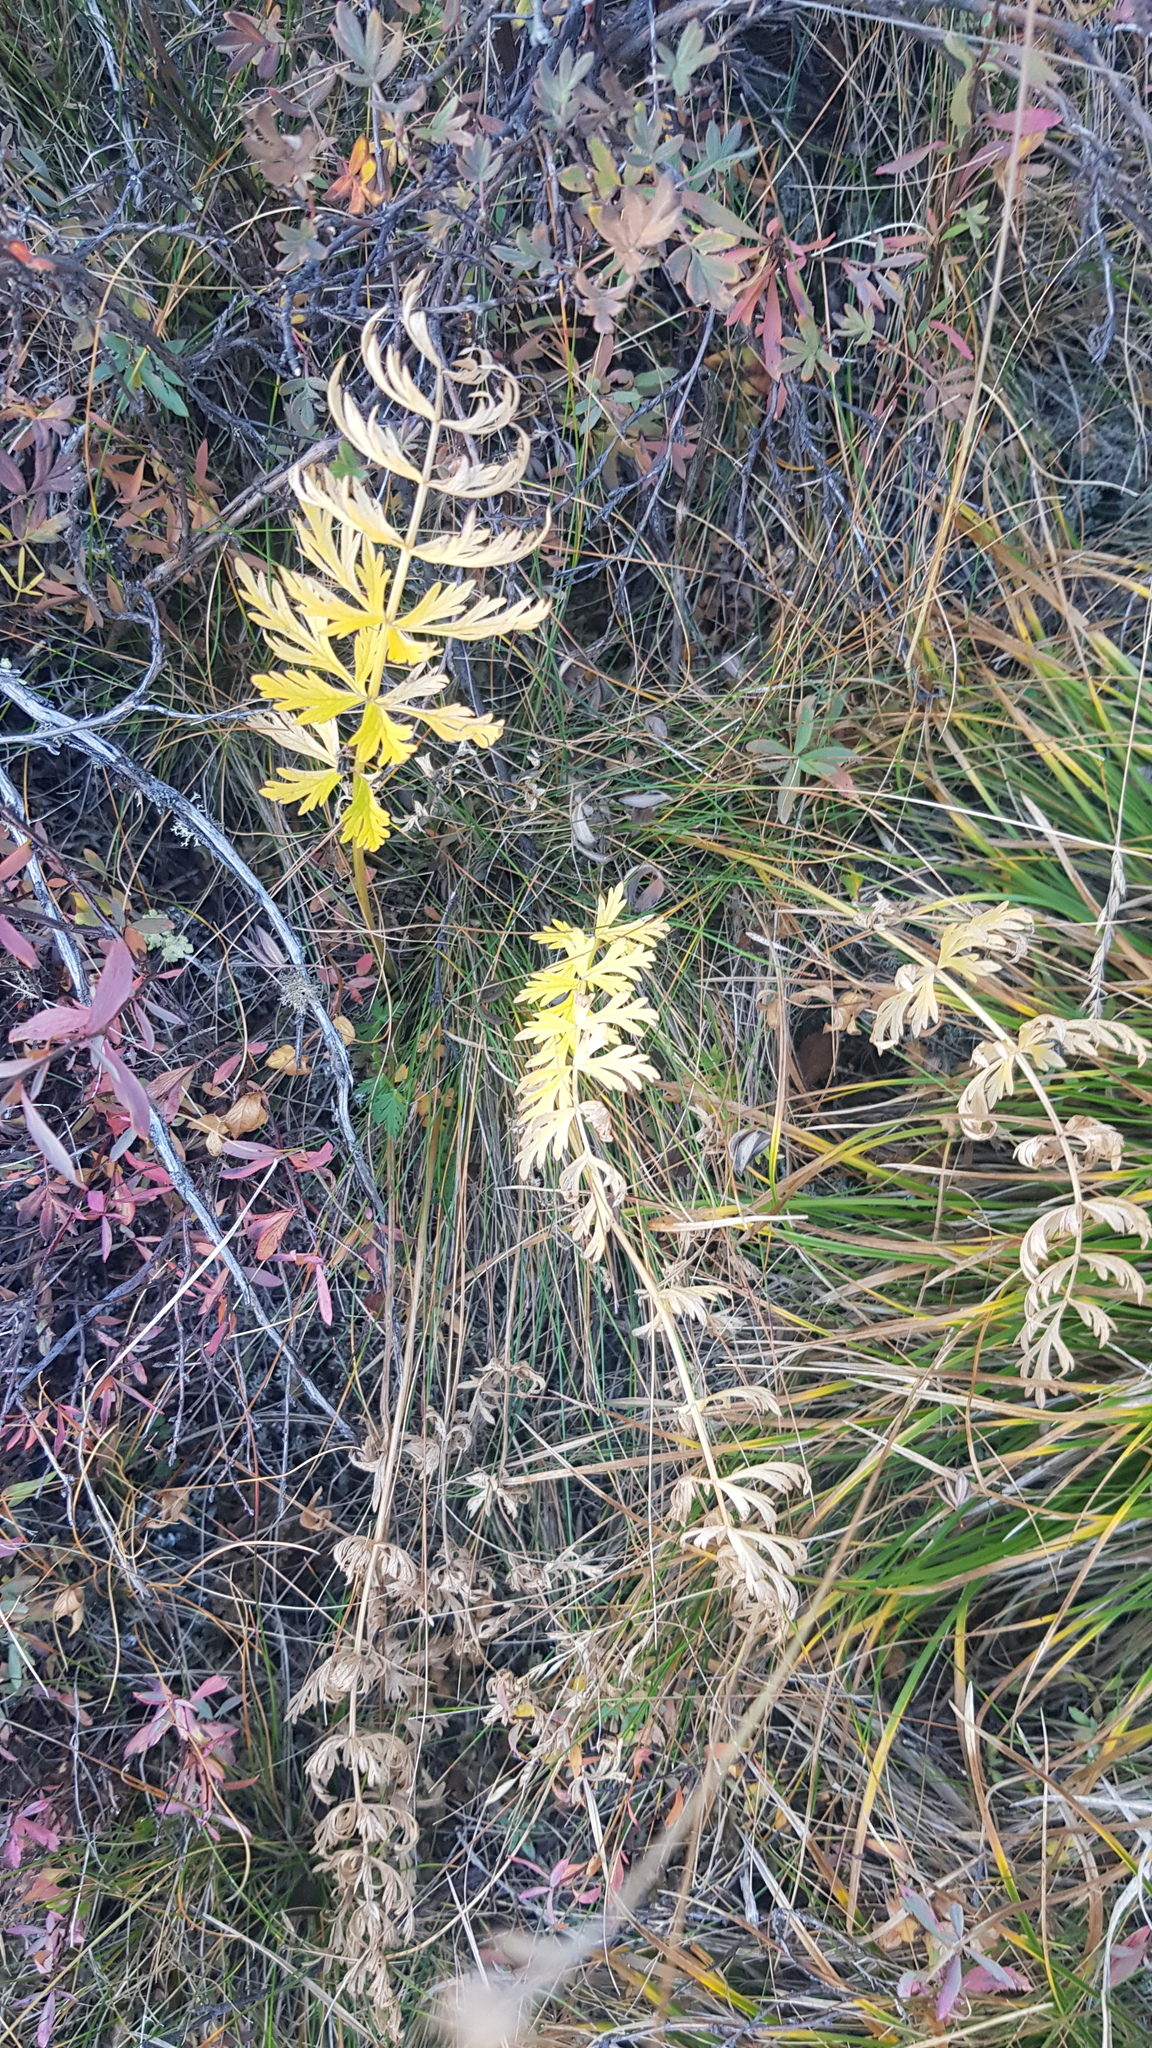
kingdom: Plantae
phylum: Tracheophyta
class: Magnoliopsida
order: Apiales
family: Apiaceae
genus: Seseli
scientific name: Seseli condensatum
